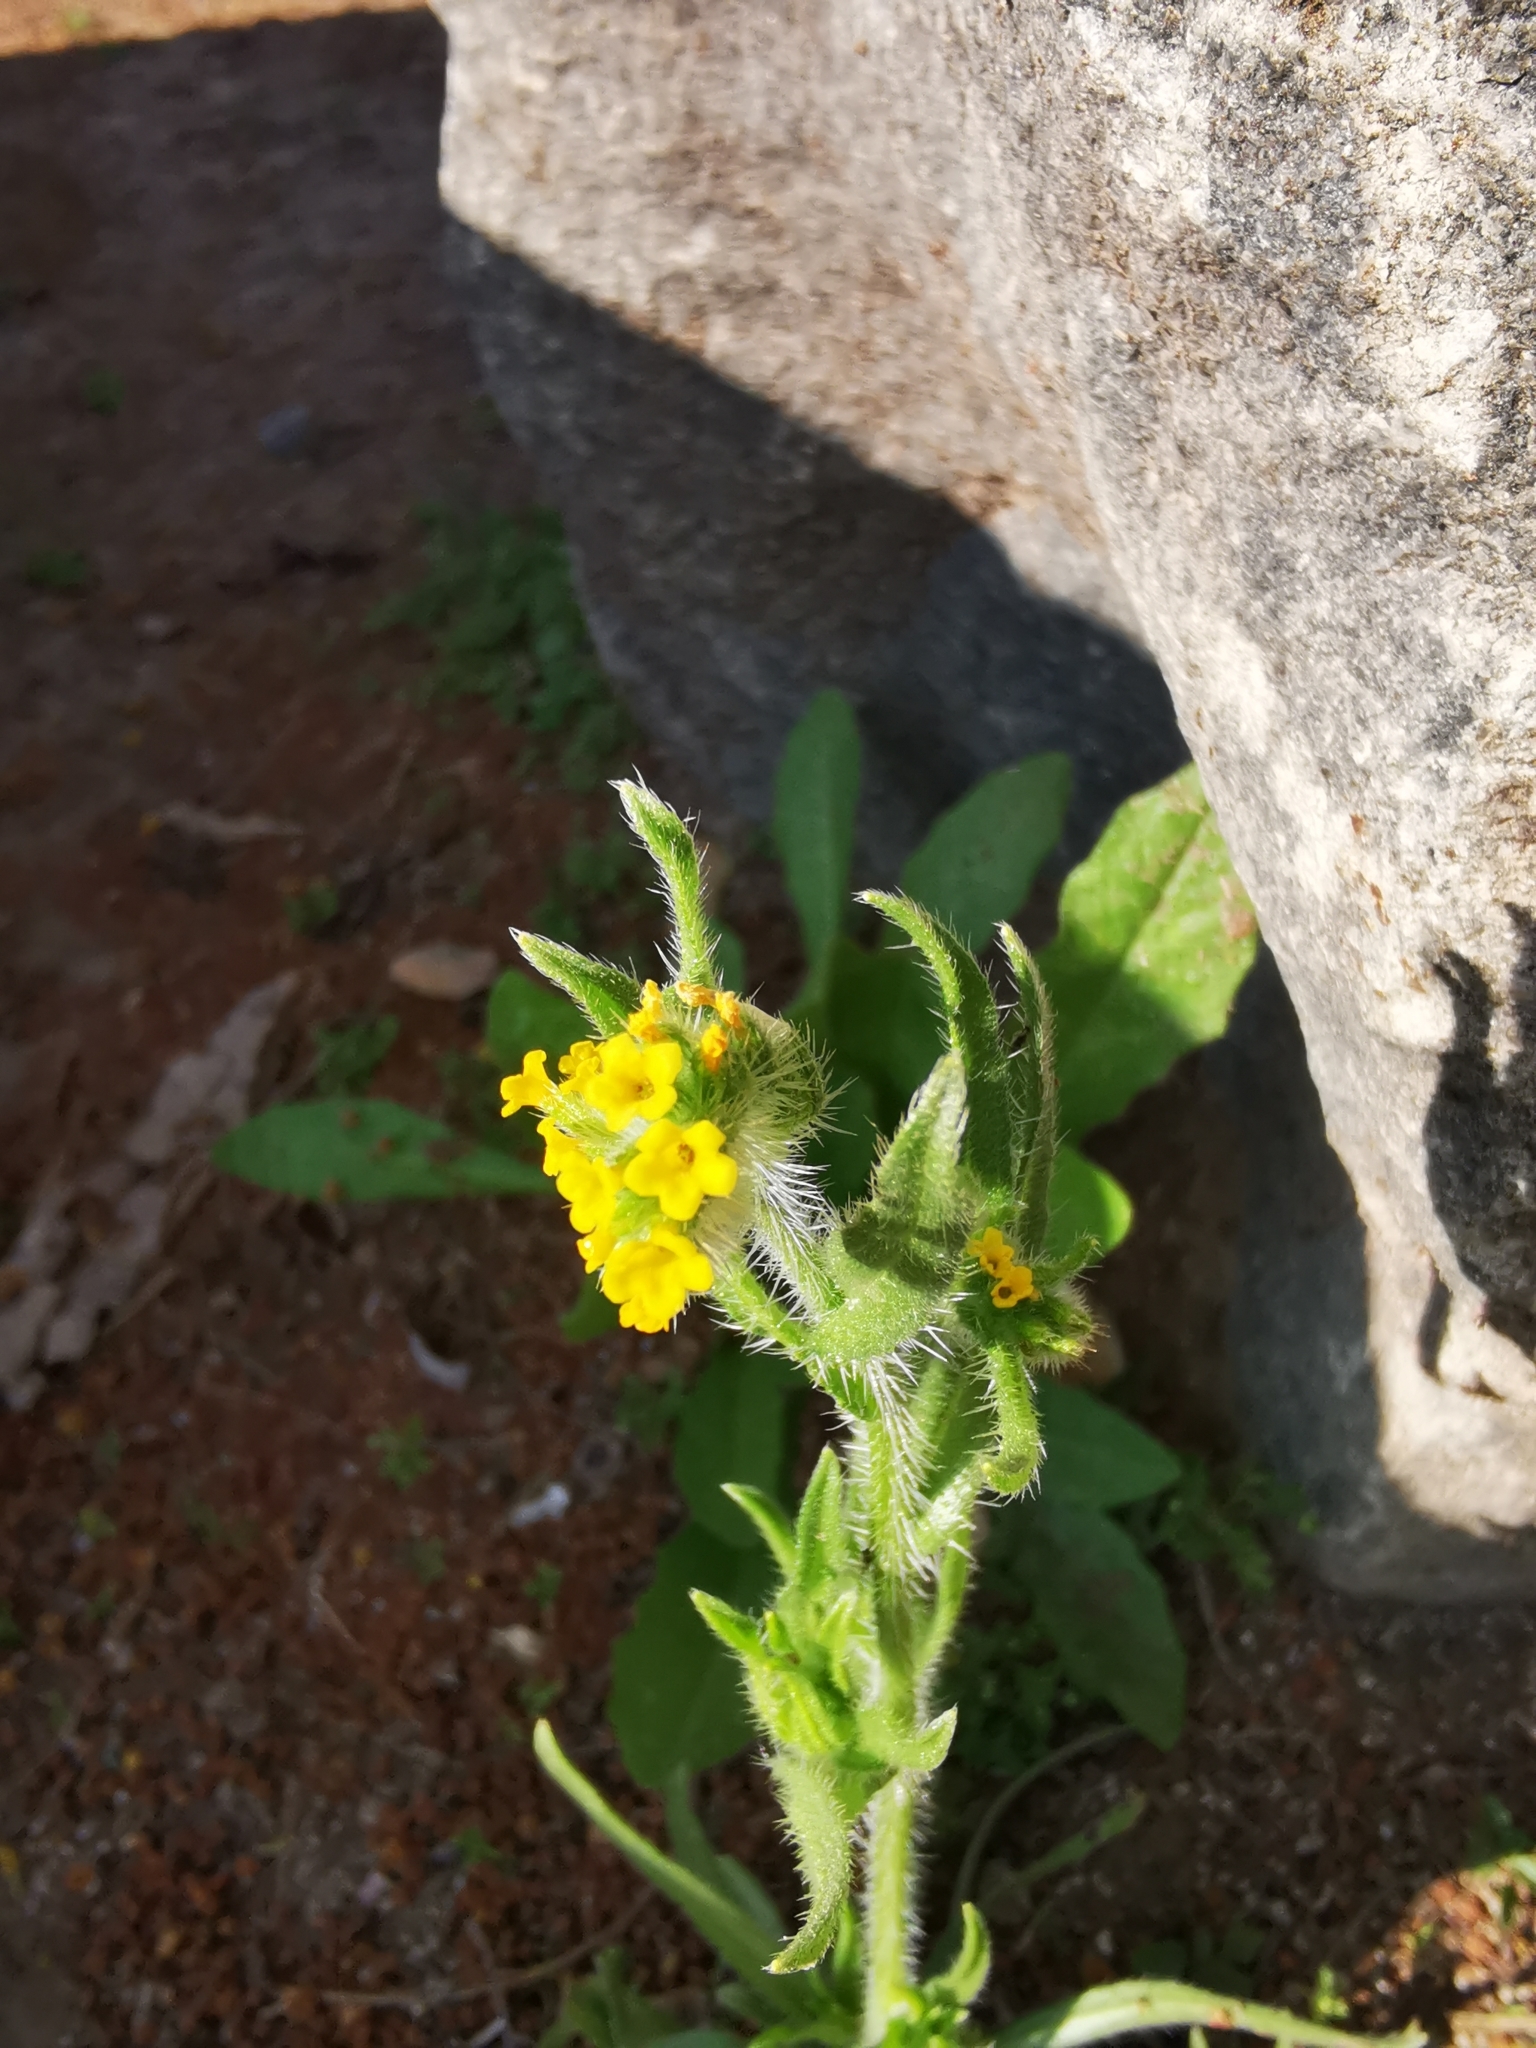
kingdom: Plantae
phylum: Tracheophyta
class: Magnoliopsida
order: Boraginales
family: Boraginaceae
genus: Amsinckia
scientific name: Amsinckia calycina
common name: Hairy fiddleneck
